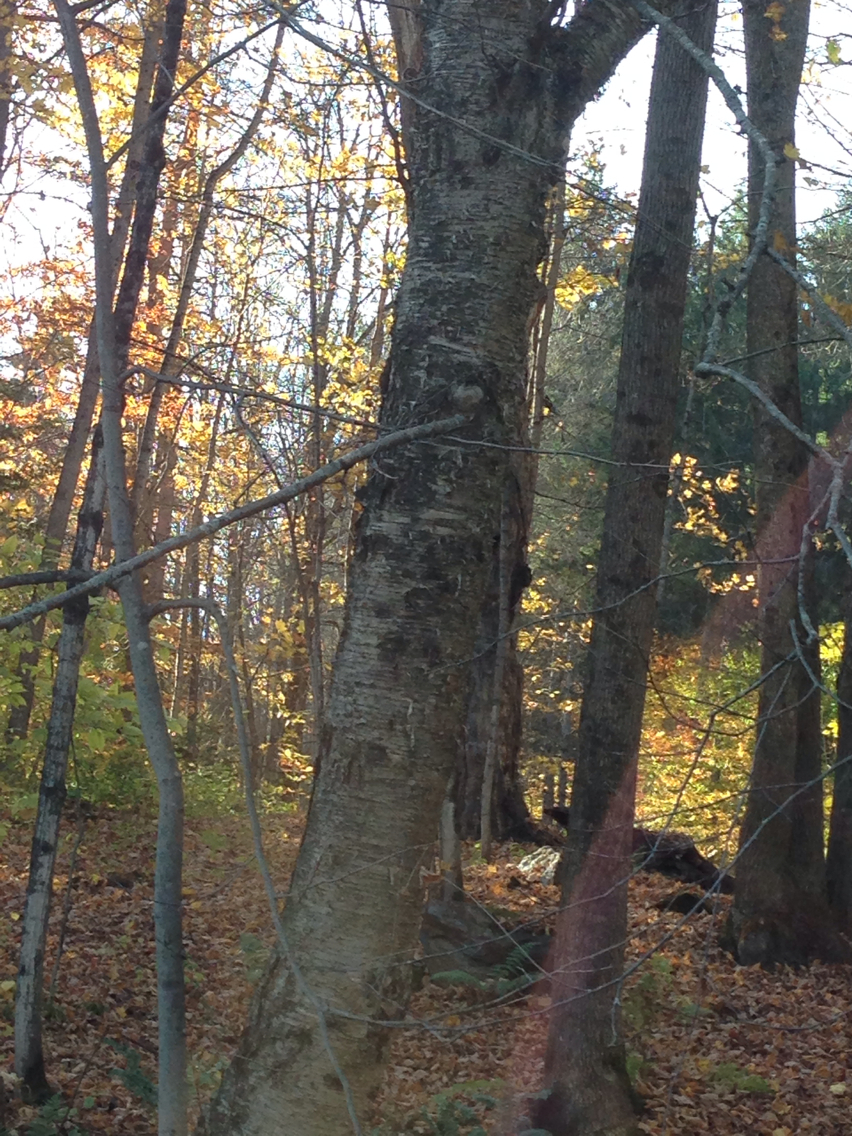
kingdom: Plantae
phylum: Tracheophyta
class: Magnoliopsida
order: Fagales
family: Betulaceae
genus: Betula
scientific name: Betula alleghaniensis
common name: Yellow birch
